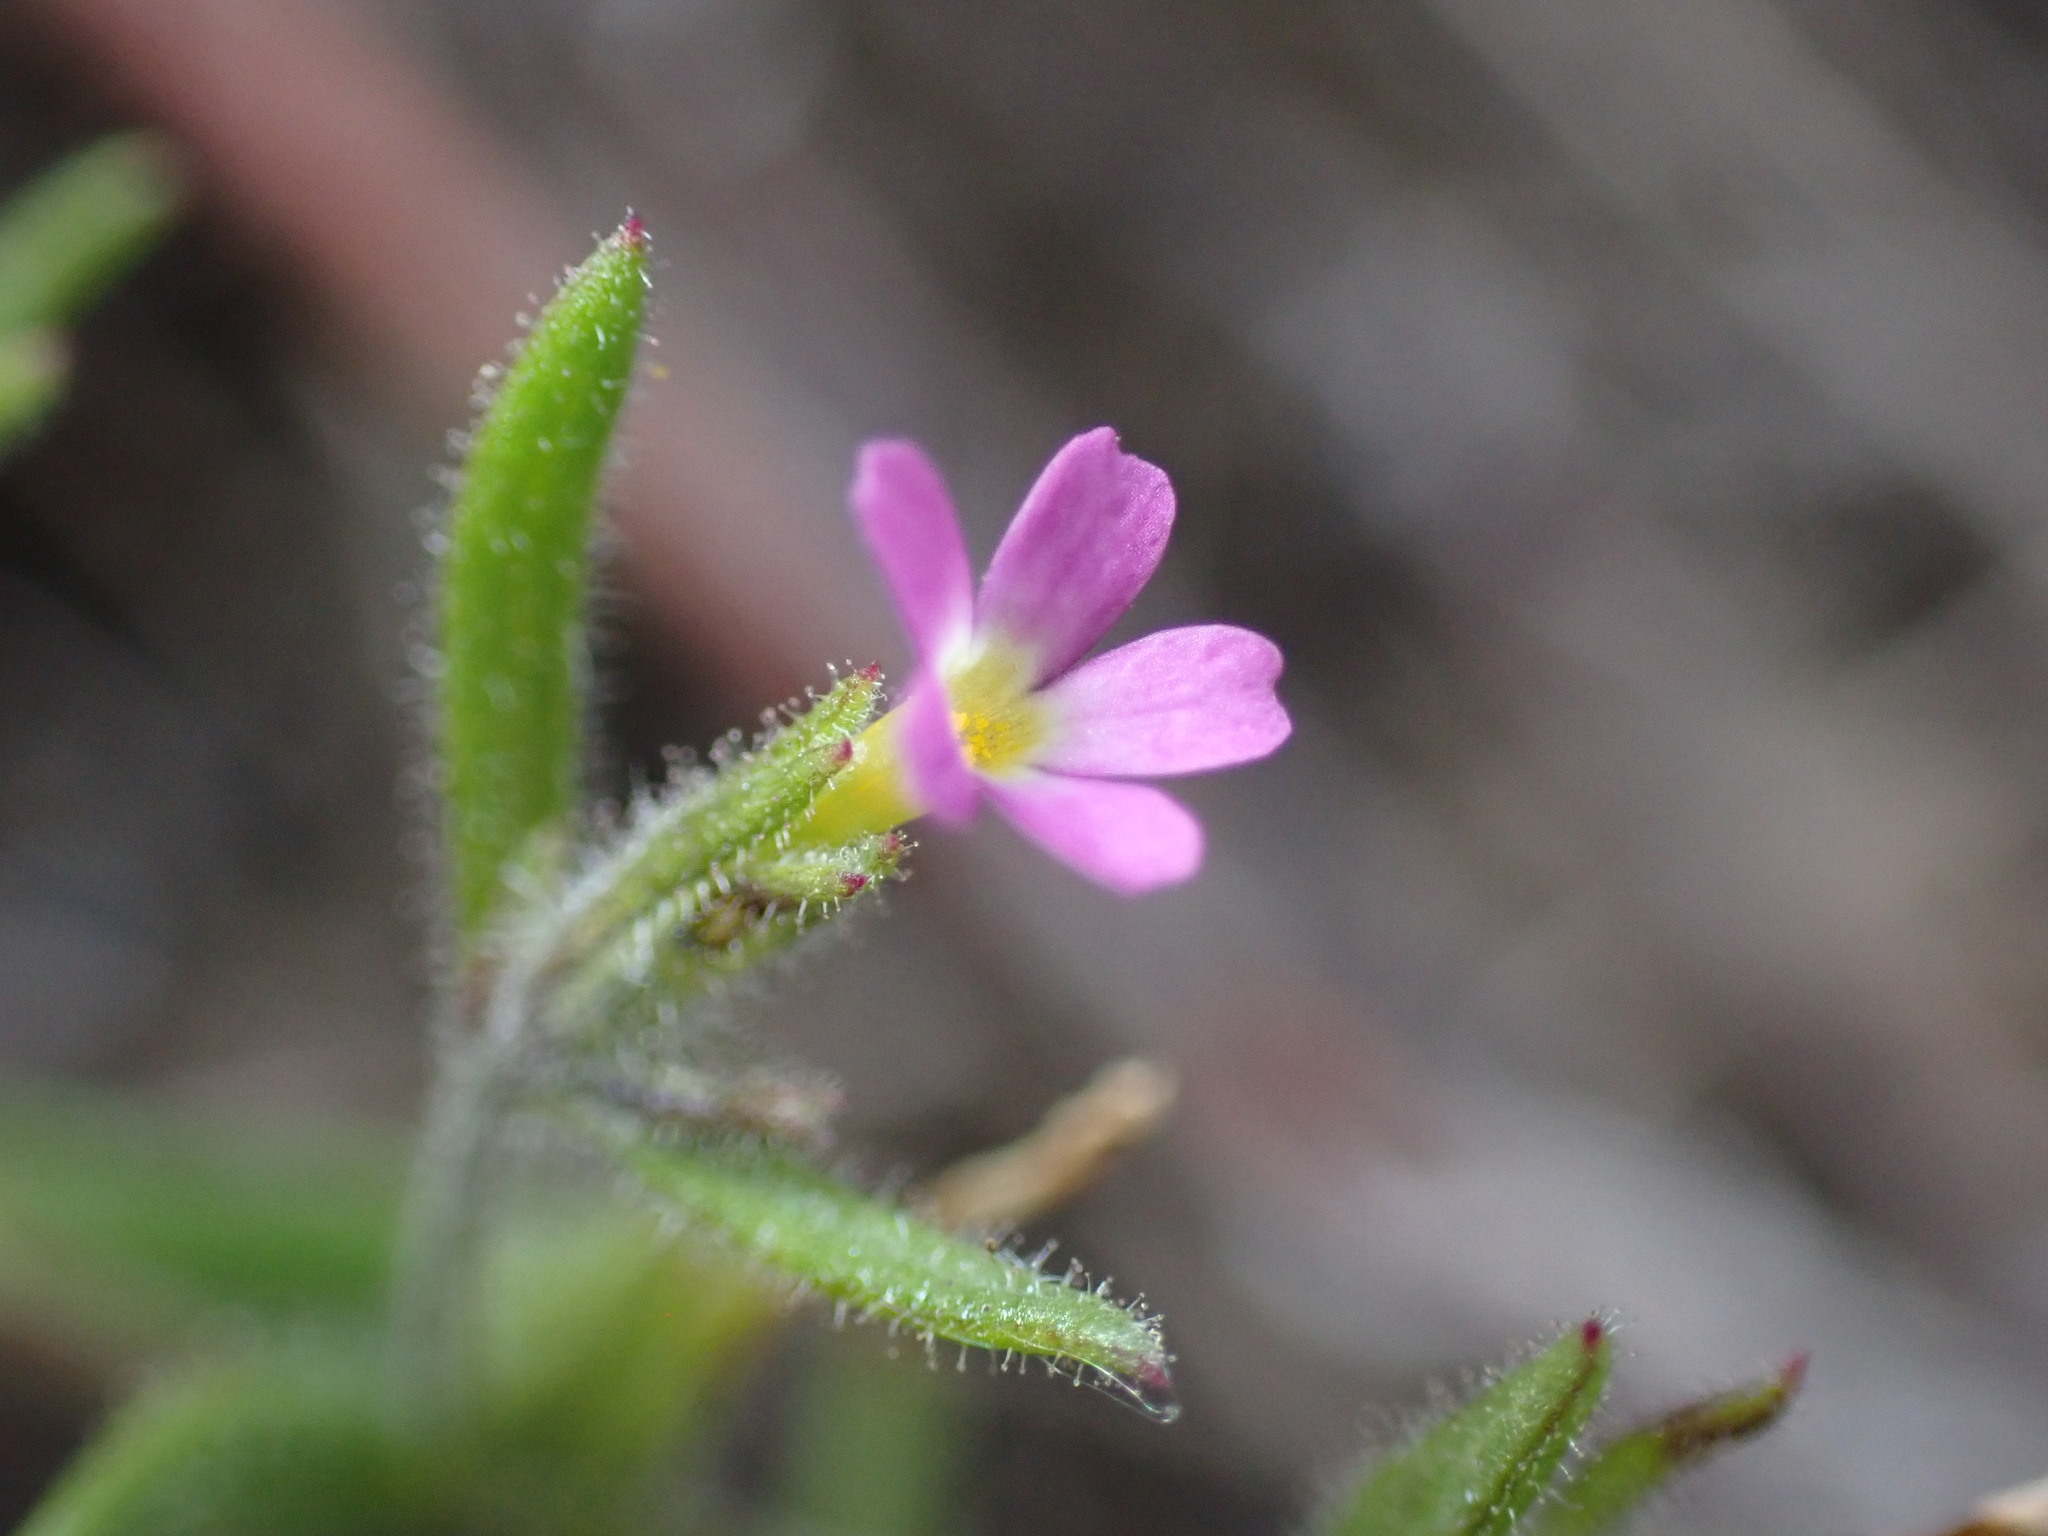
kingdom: Plantae
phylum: Tracheophyta
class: Magnoliopsida
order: Ericales
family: Polemoniaceae
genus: Phlox
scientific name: Phlox gracilis
